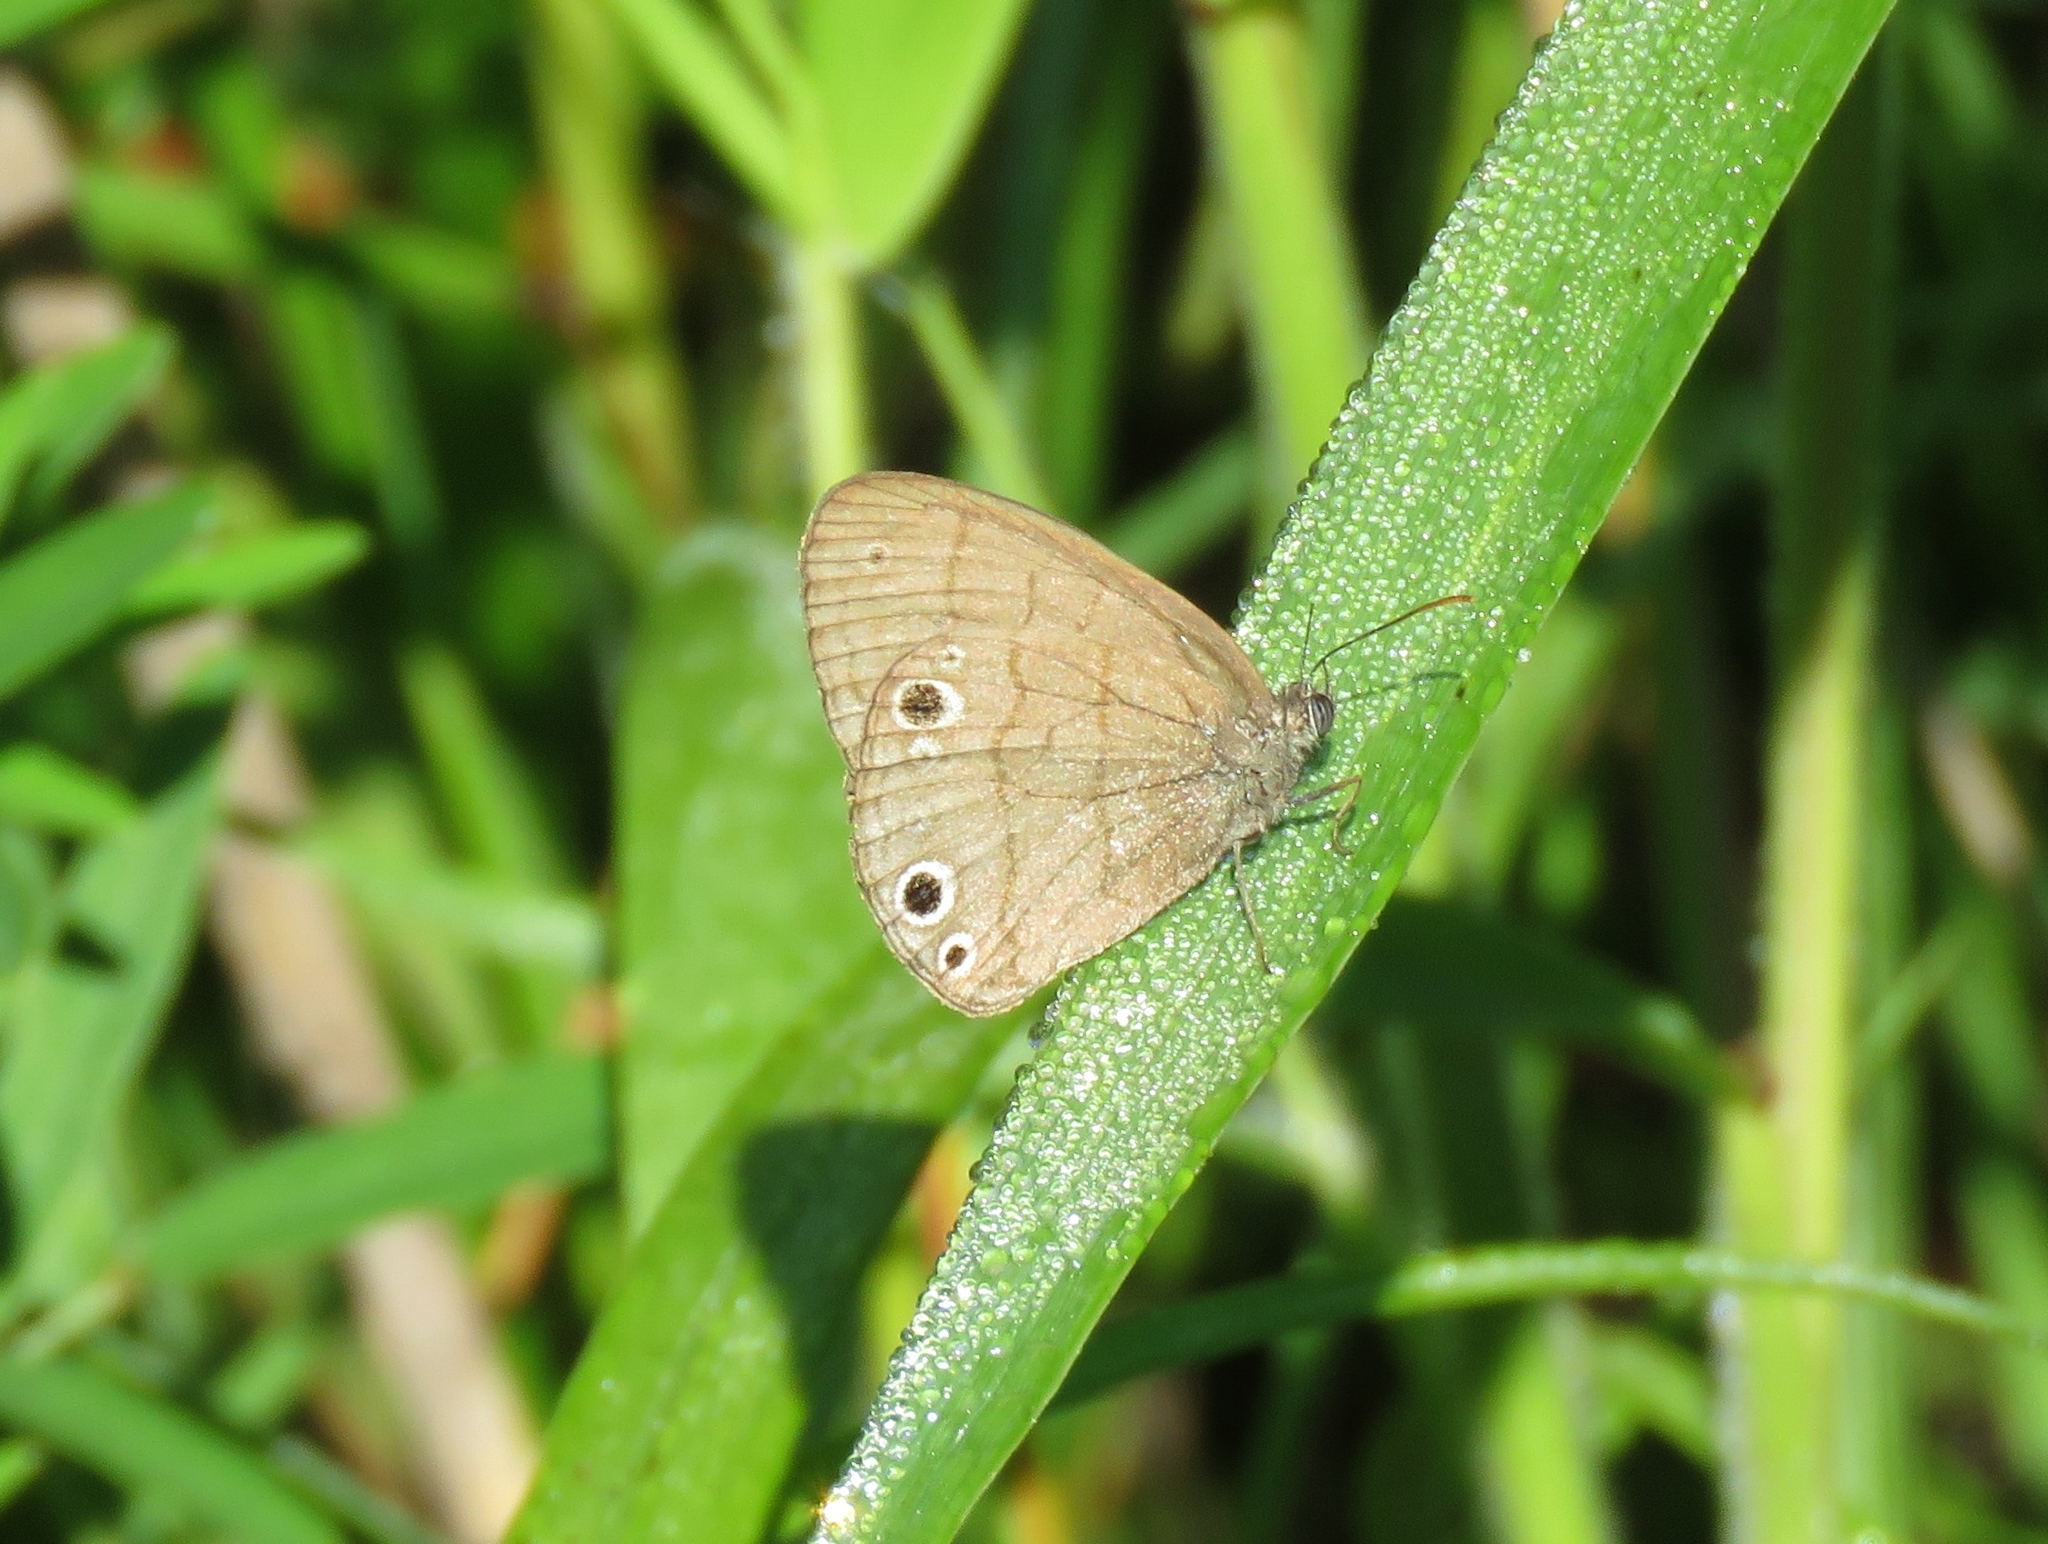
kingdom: Animalia
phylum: Arthropoda
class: Insecta
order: Lepidoptera
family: Nymphalidae
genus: Hermeuptychia
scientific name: Hermeuptychia hermes
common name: Hermes satyr
